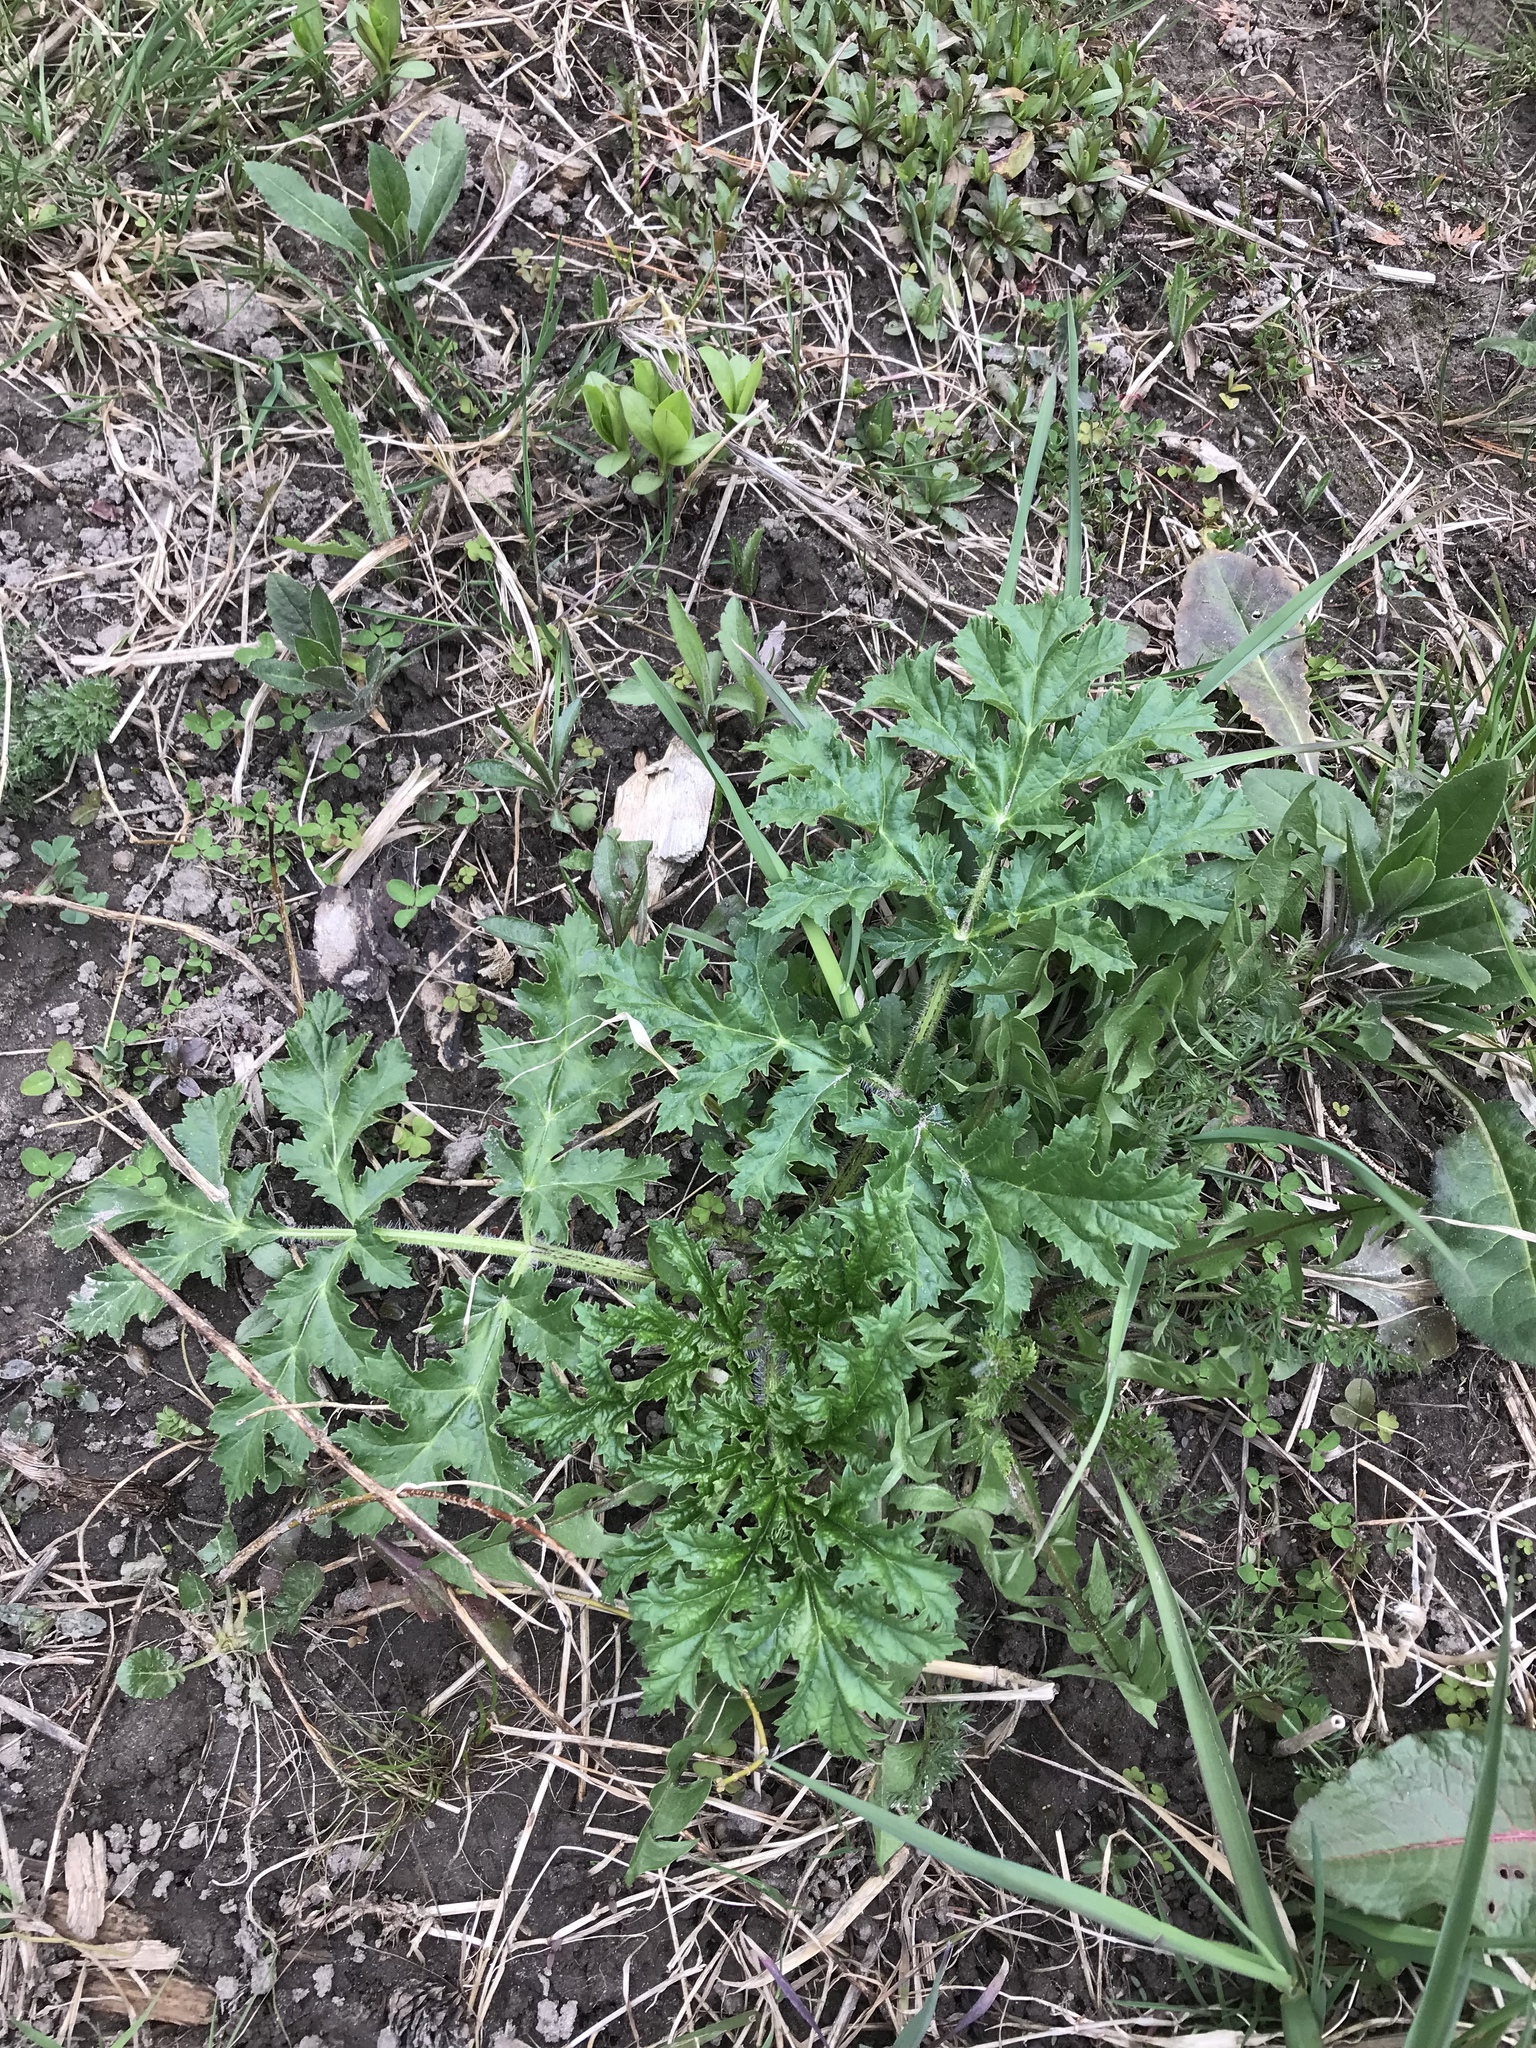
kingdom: Plantae
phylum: Tracheophyta
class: Magnoliopsida
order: Apiales
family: Apiaceae
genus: Heracleum
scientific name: Heracleum mantegazzianum
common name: Giant hogweed
